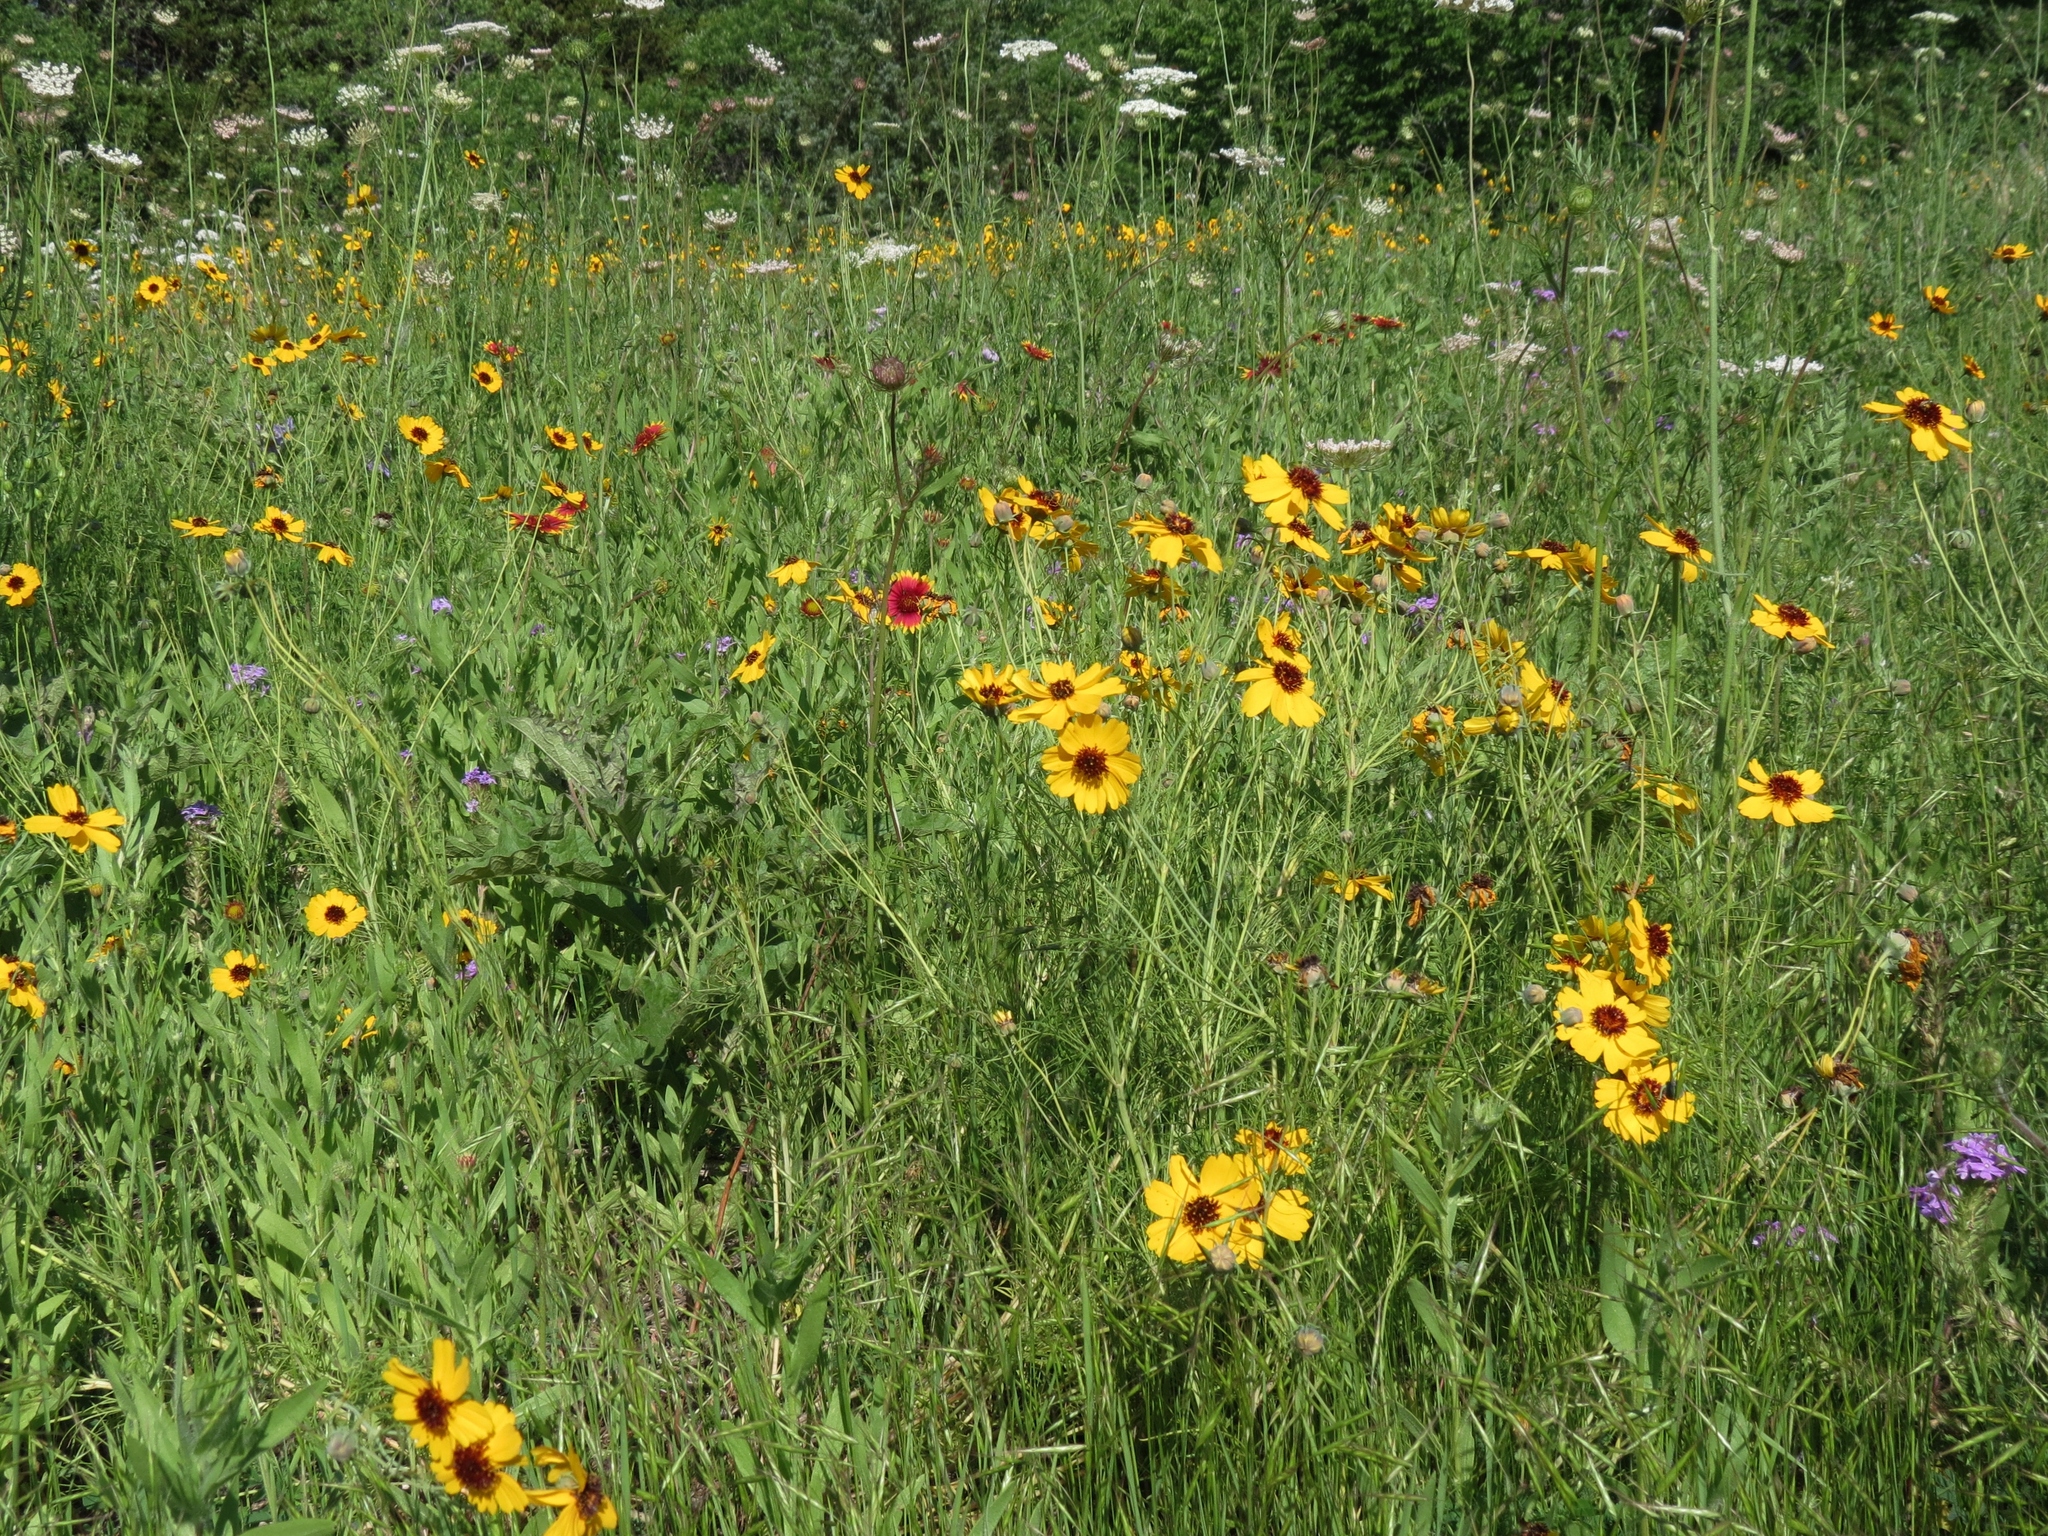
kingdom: Plantae
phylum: Tracheophyta
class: Magnoliopsida
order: Asterales
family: Asteraceae
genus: Thelesperma
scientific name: Thelesperma filifolium
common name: Stiff greenthread
